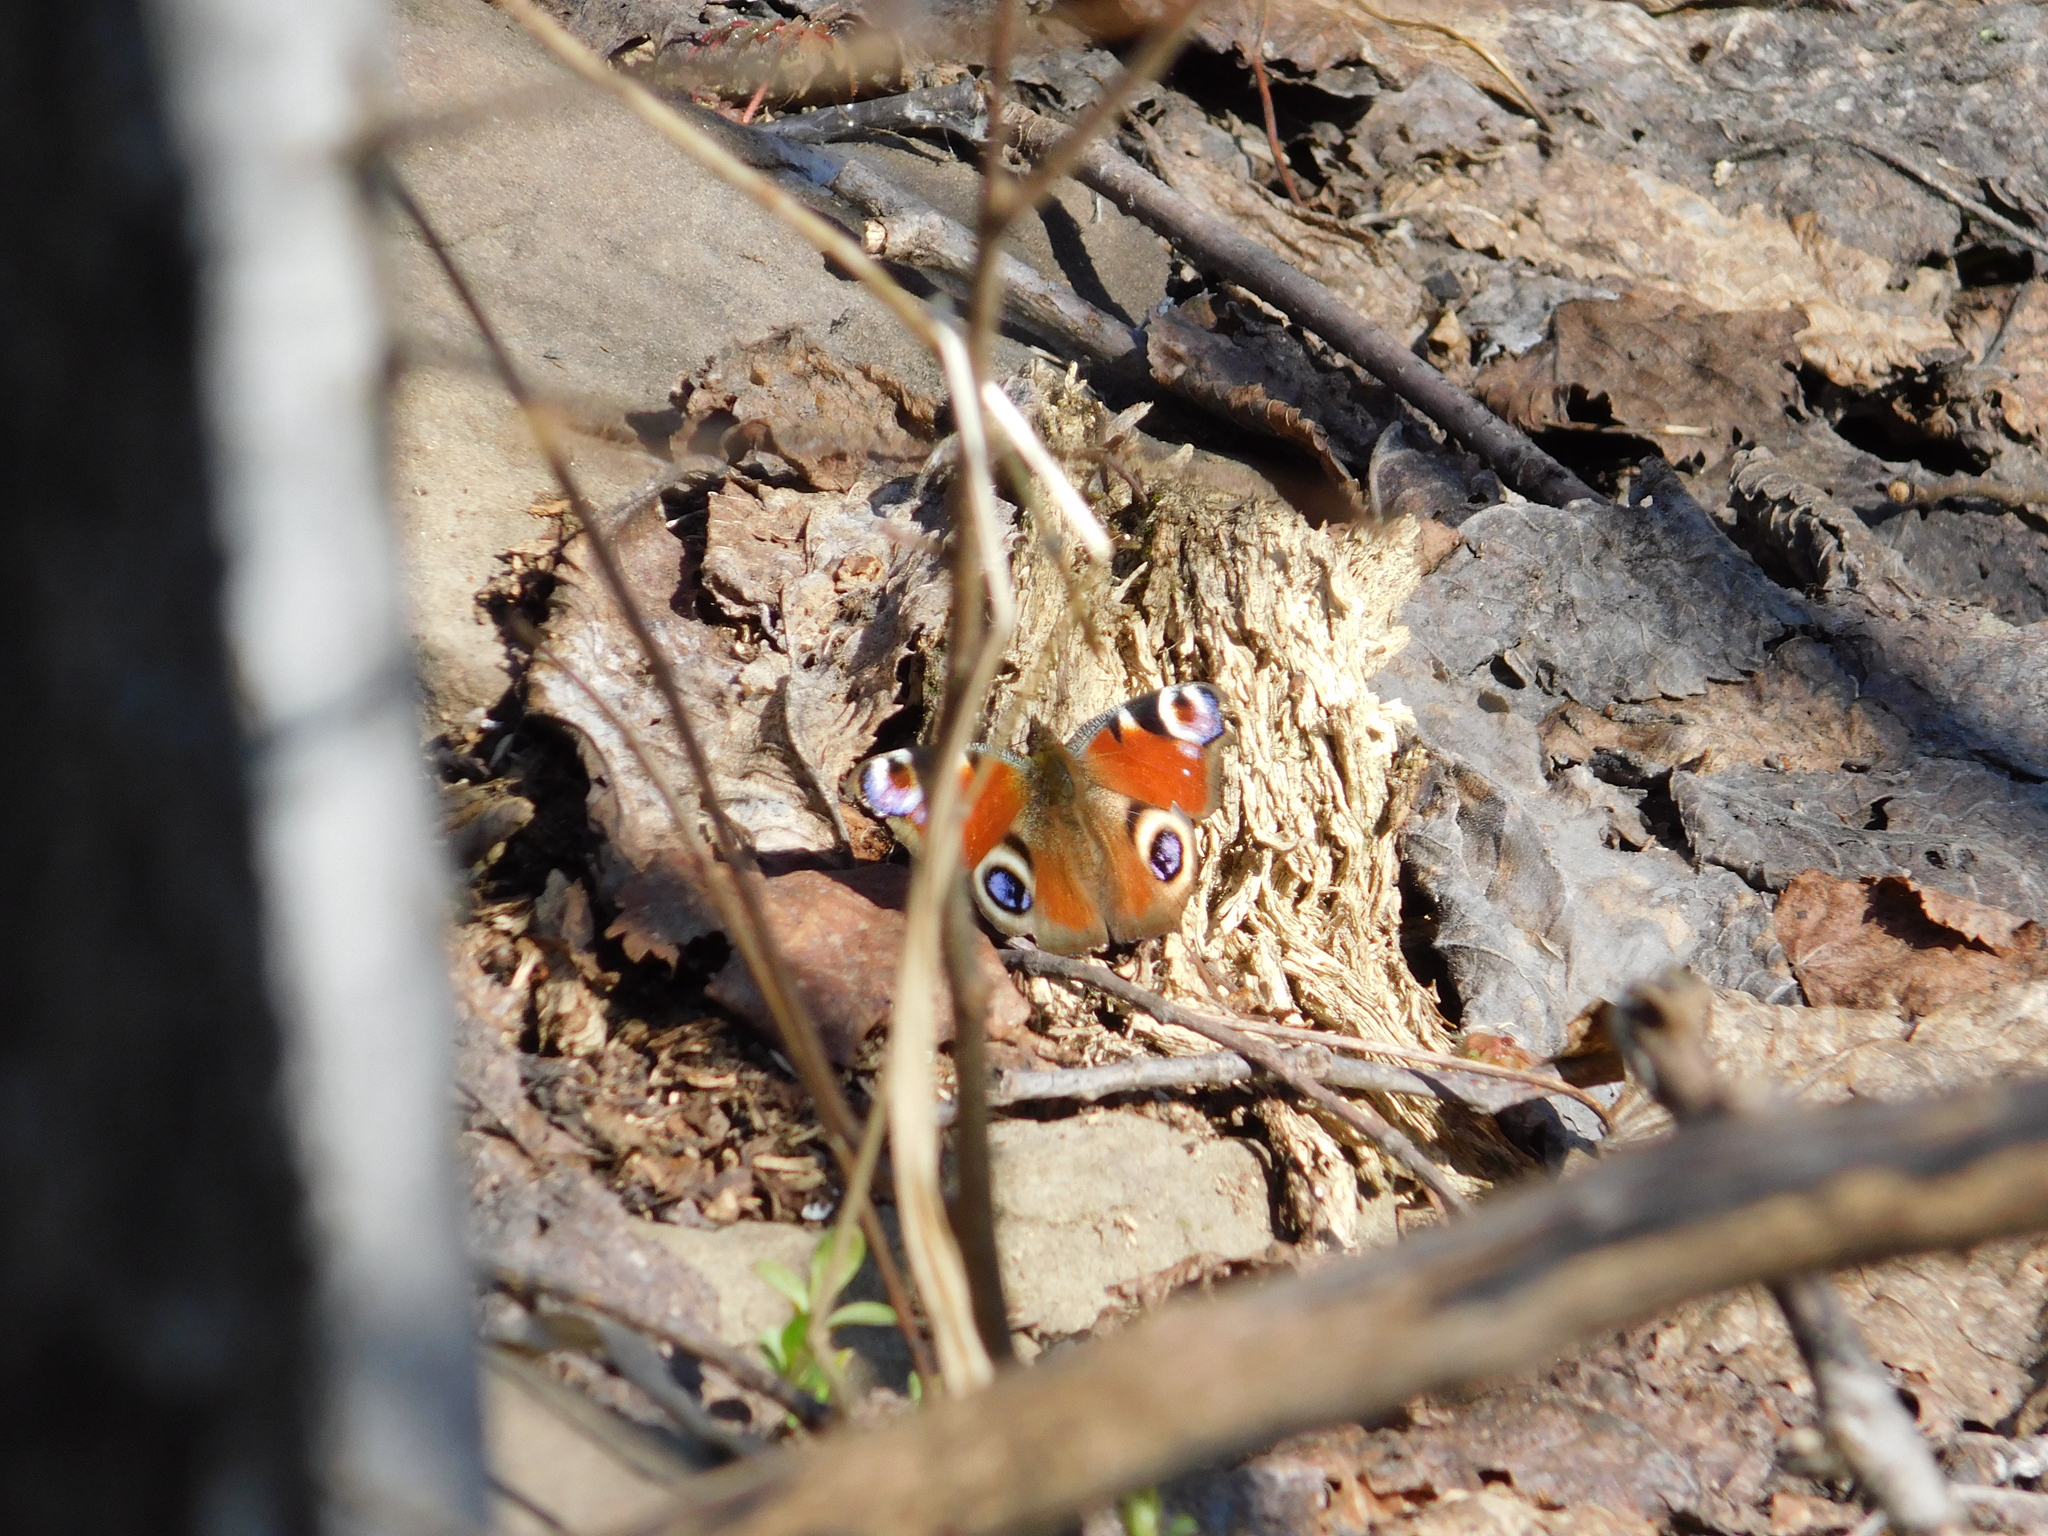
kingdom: Animalia
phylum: Arthropoda
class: Insecta
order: Lepidoptera
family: Nymphalidae
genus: Aglais
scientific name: Aglais io
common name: Peacock
